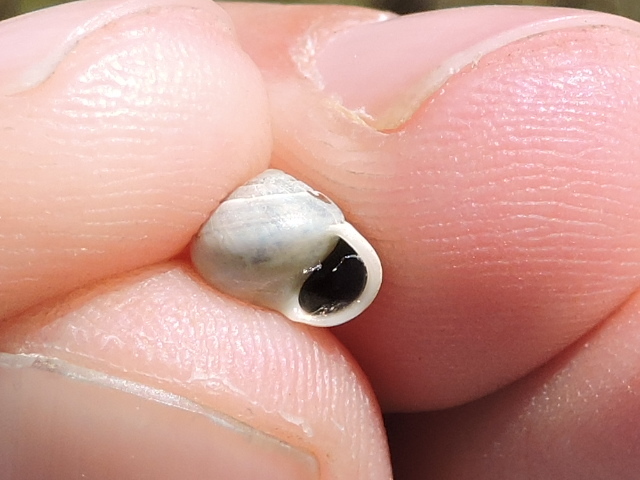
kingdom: Animalia
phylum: Mollusca
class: Gastropoda
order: Cycloneritida
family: Helicinidae
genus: Helicina
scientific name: Helicina orbiculata
